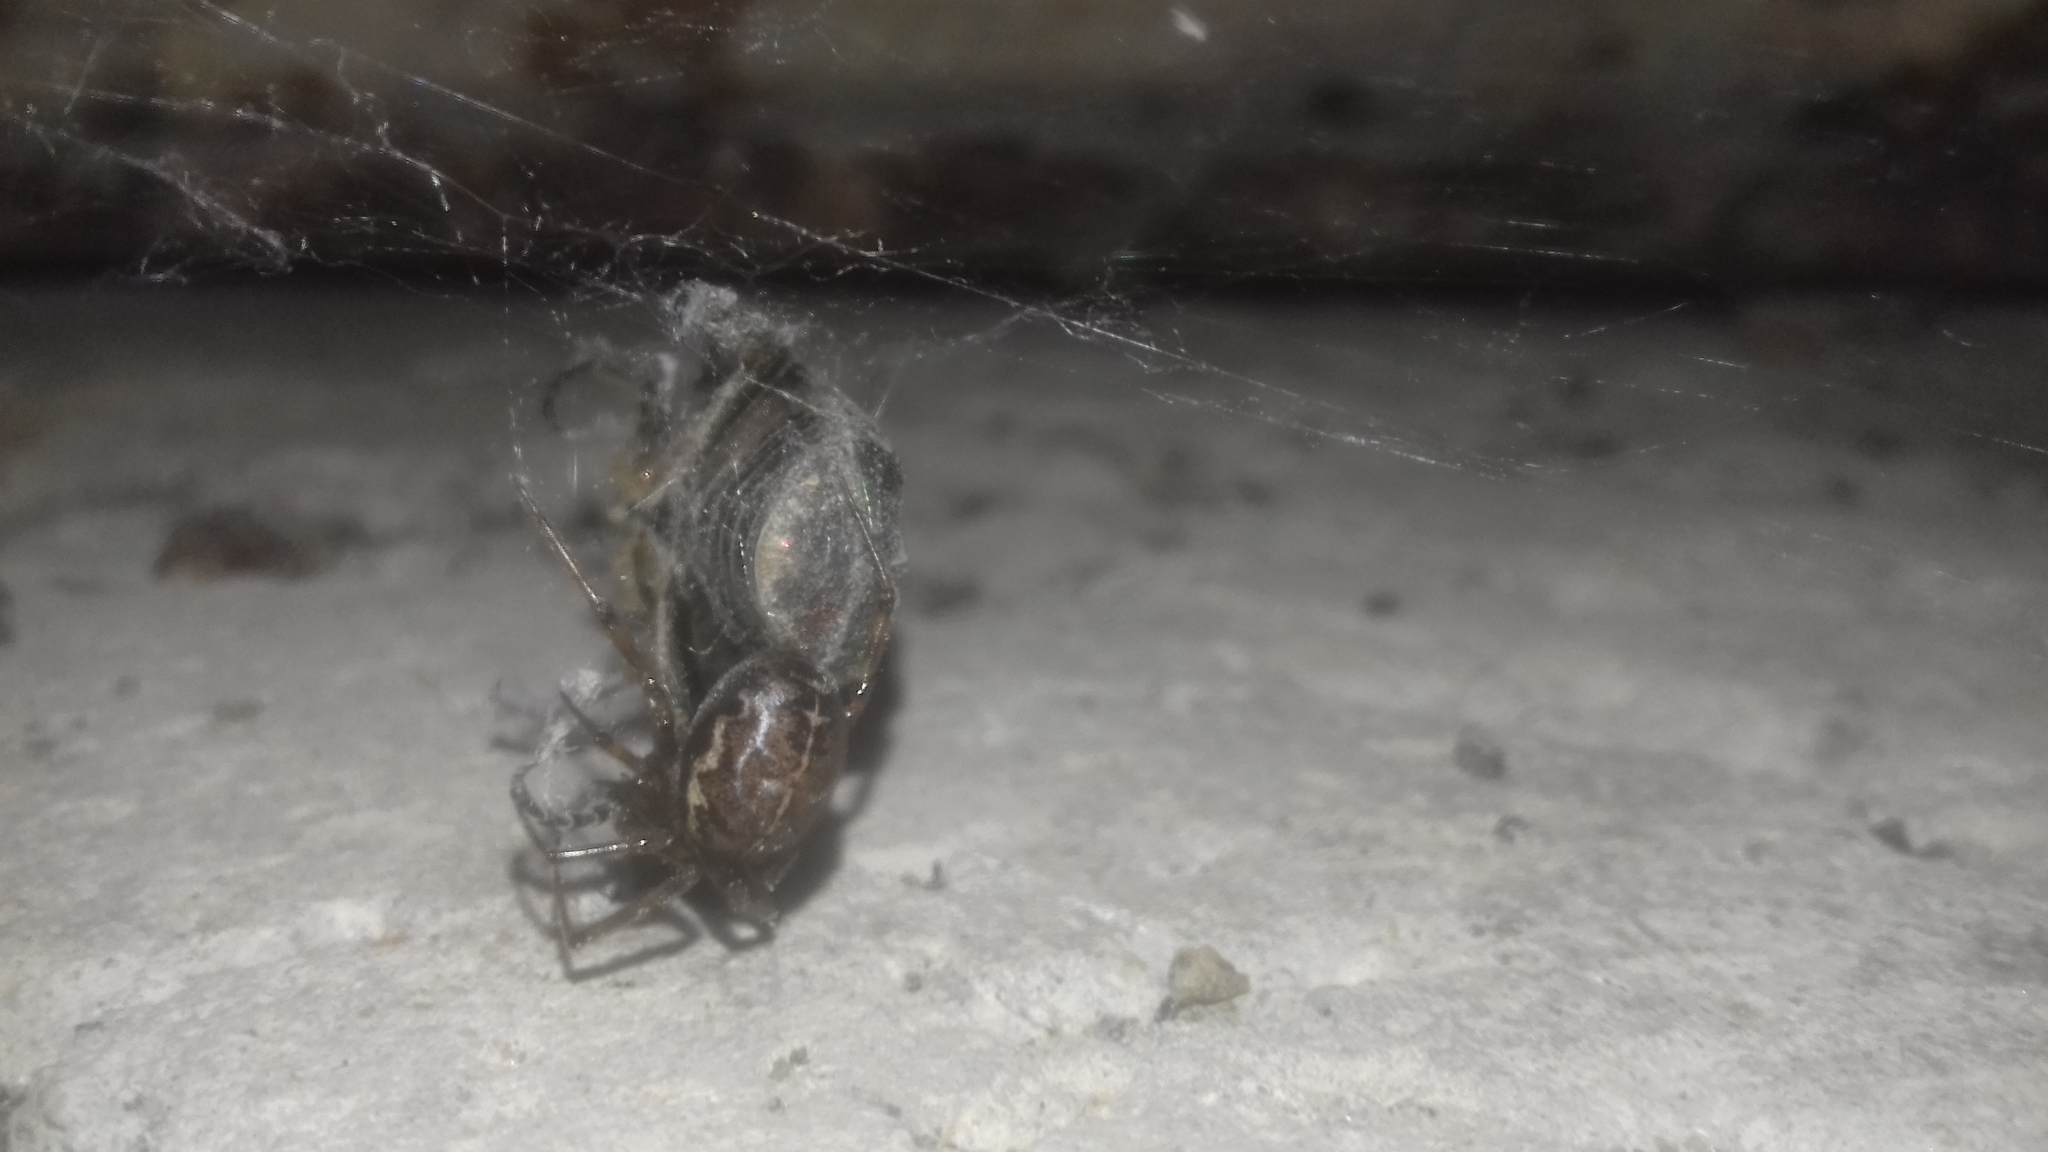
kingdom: Animalia
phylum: Arthropoda
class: Arachnida
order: Araneae
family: Theridiidae
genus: Steatoda
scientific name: Steatoda castanea
